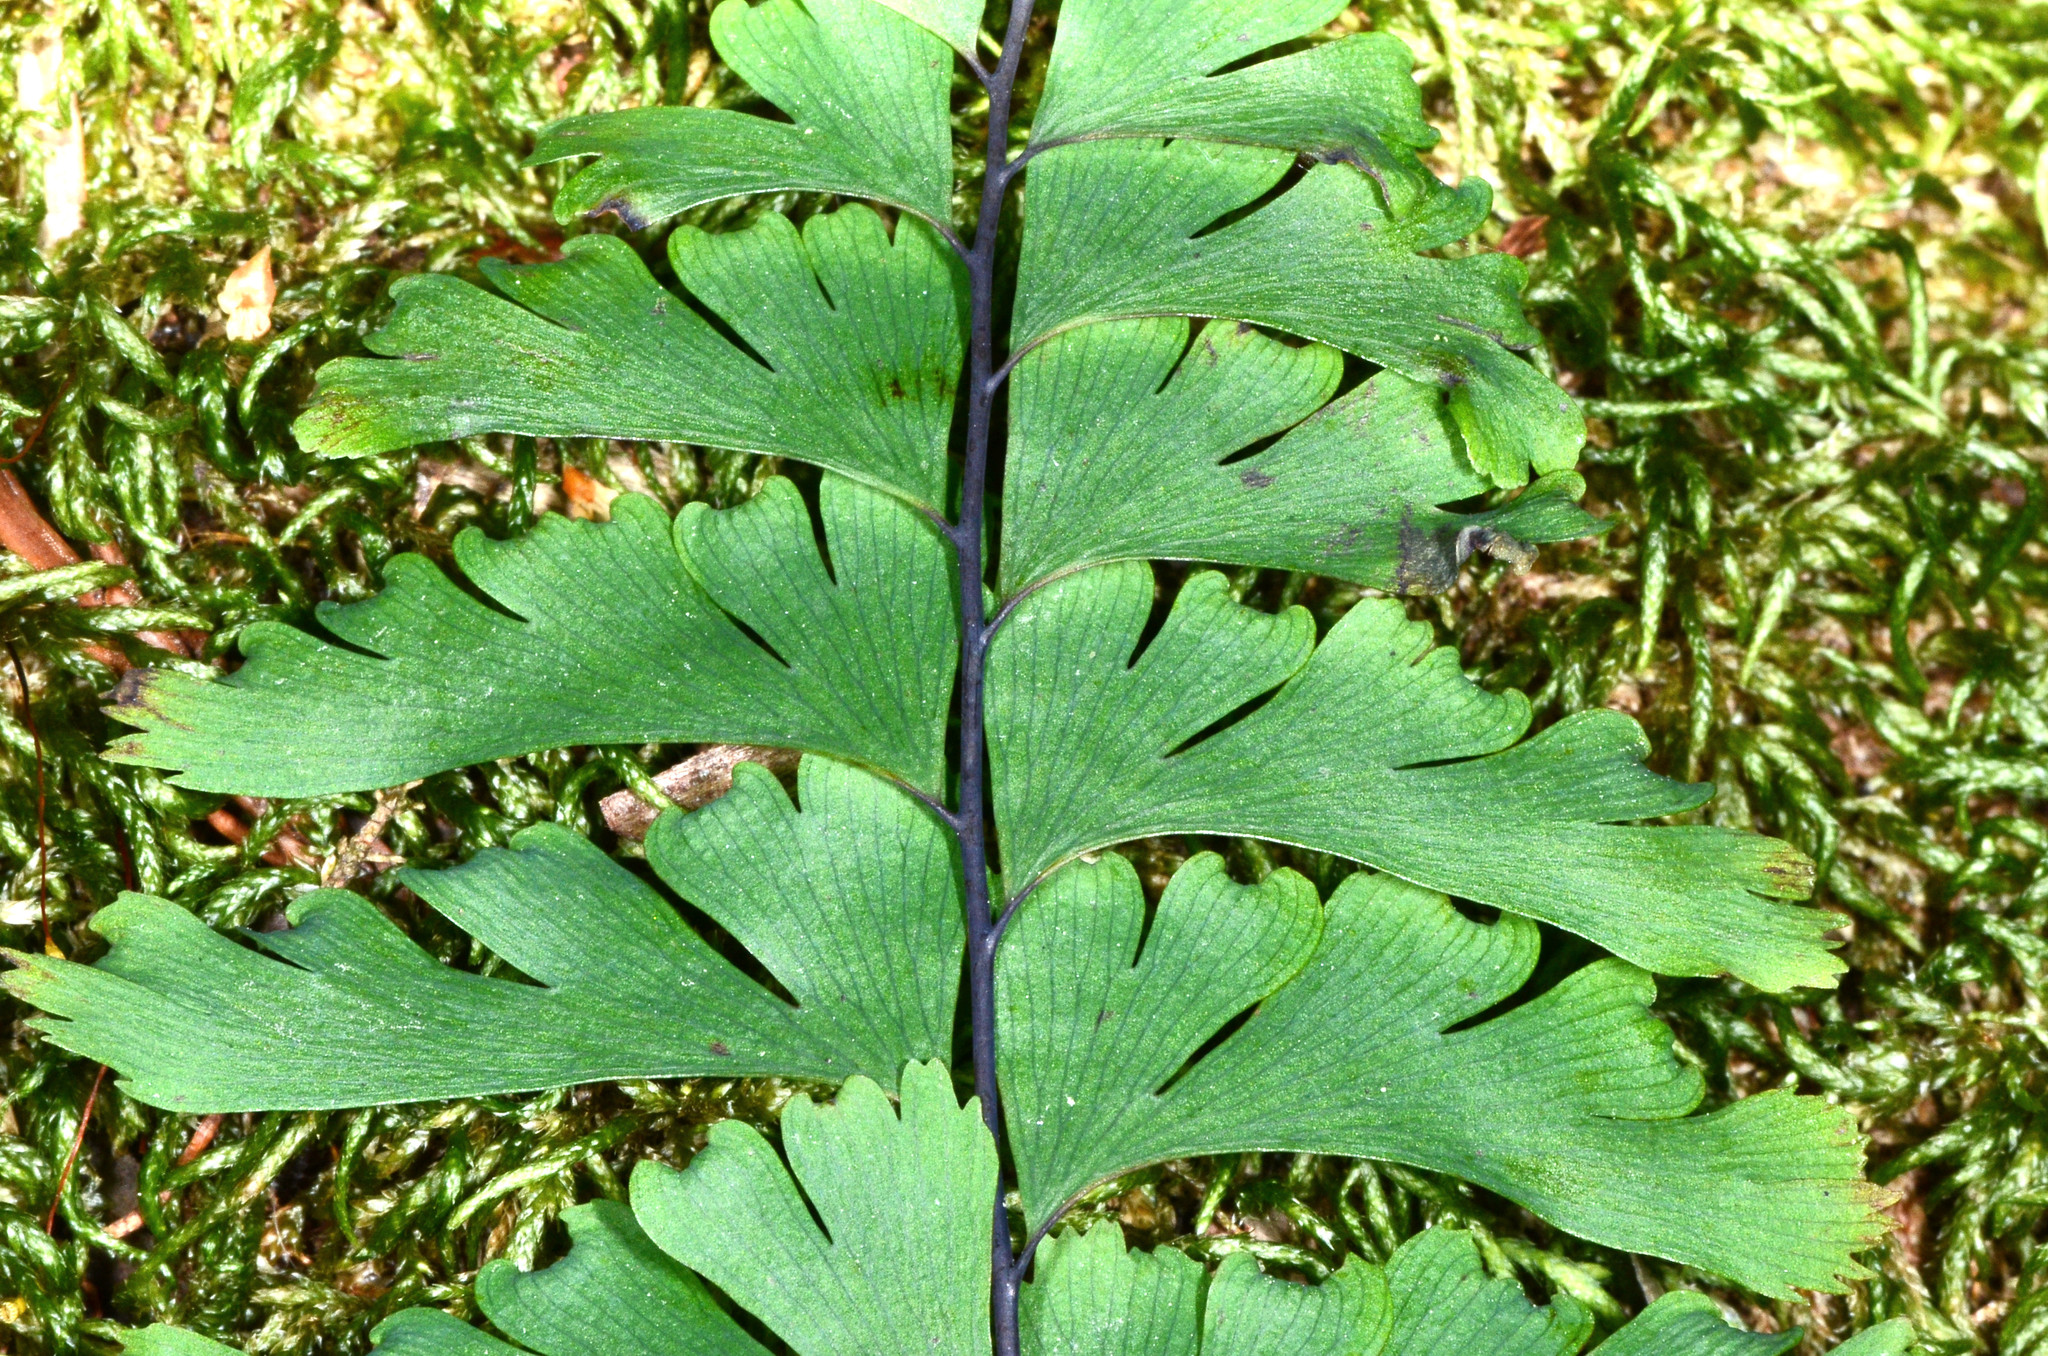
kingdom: Plantae
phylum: Tracheophyta
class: Polypodiopsida
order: Polypodiales
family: Pteridaceae
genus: Adiantum
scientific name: Adiantum aleuticum
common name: Aleutian maidenhair fern
